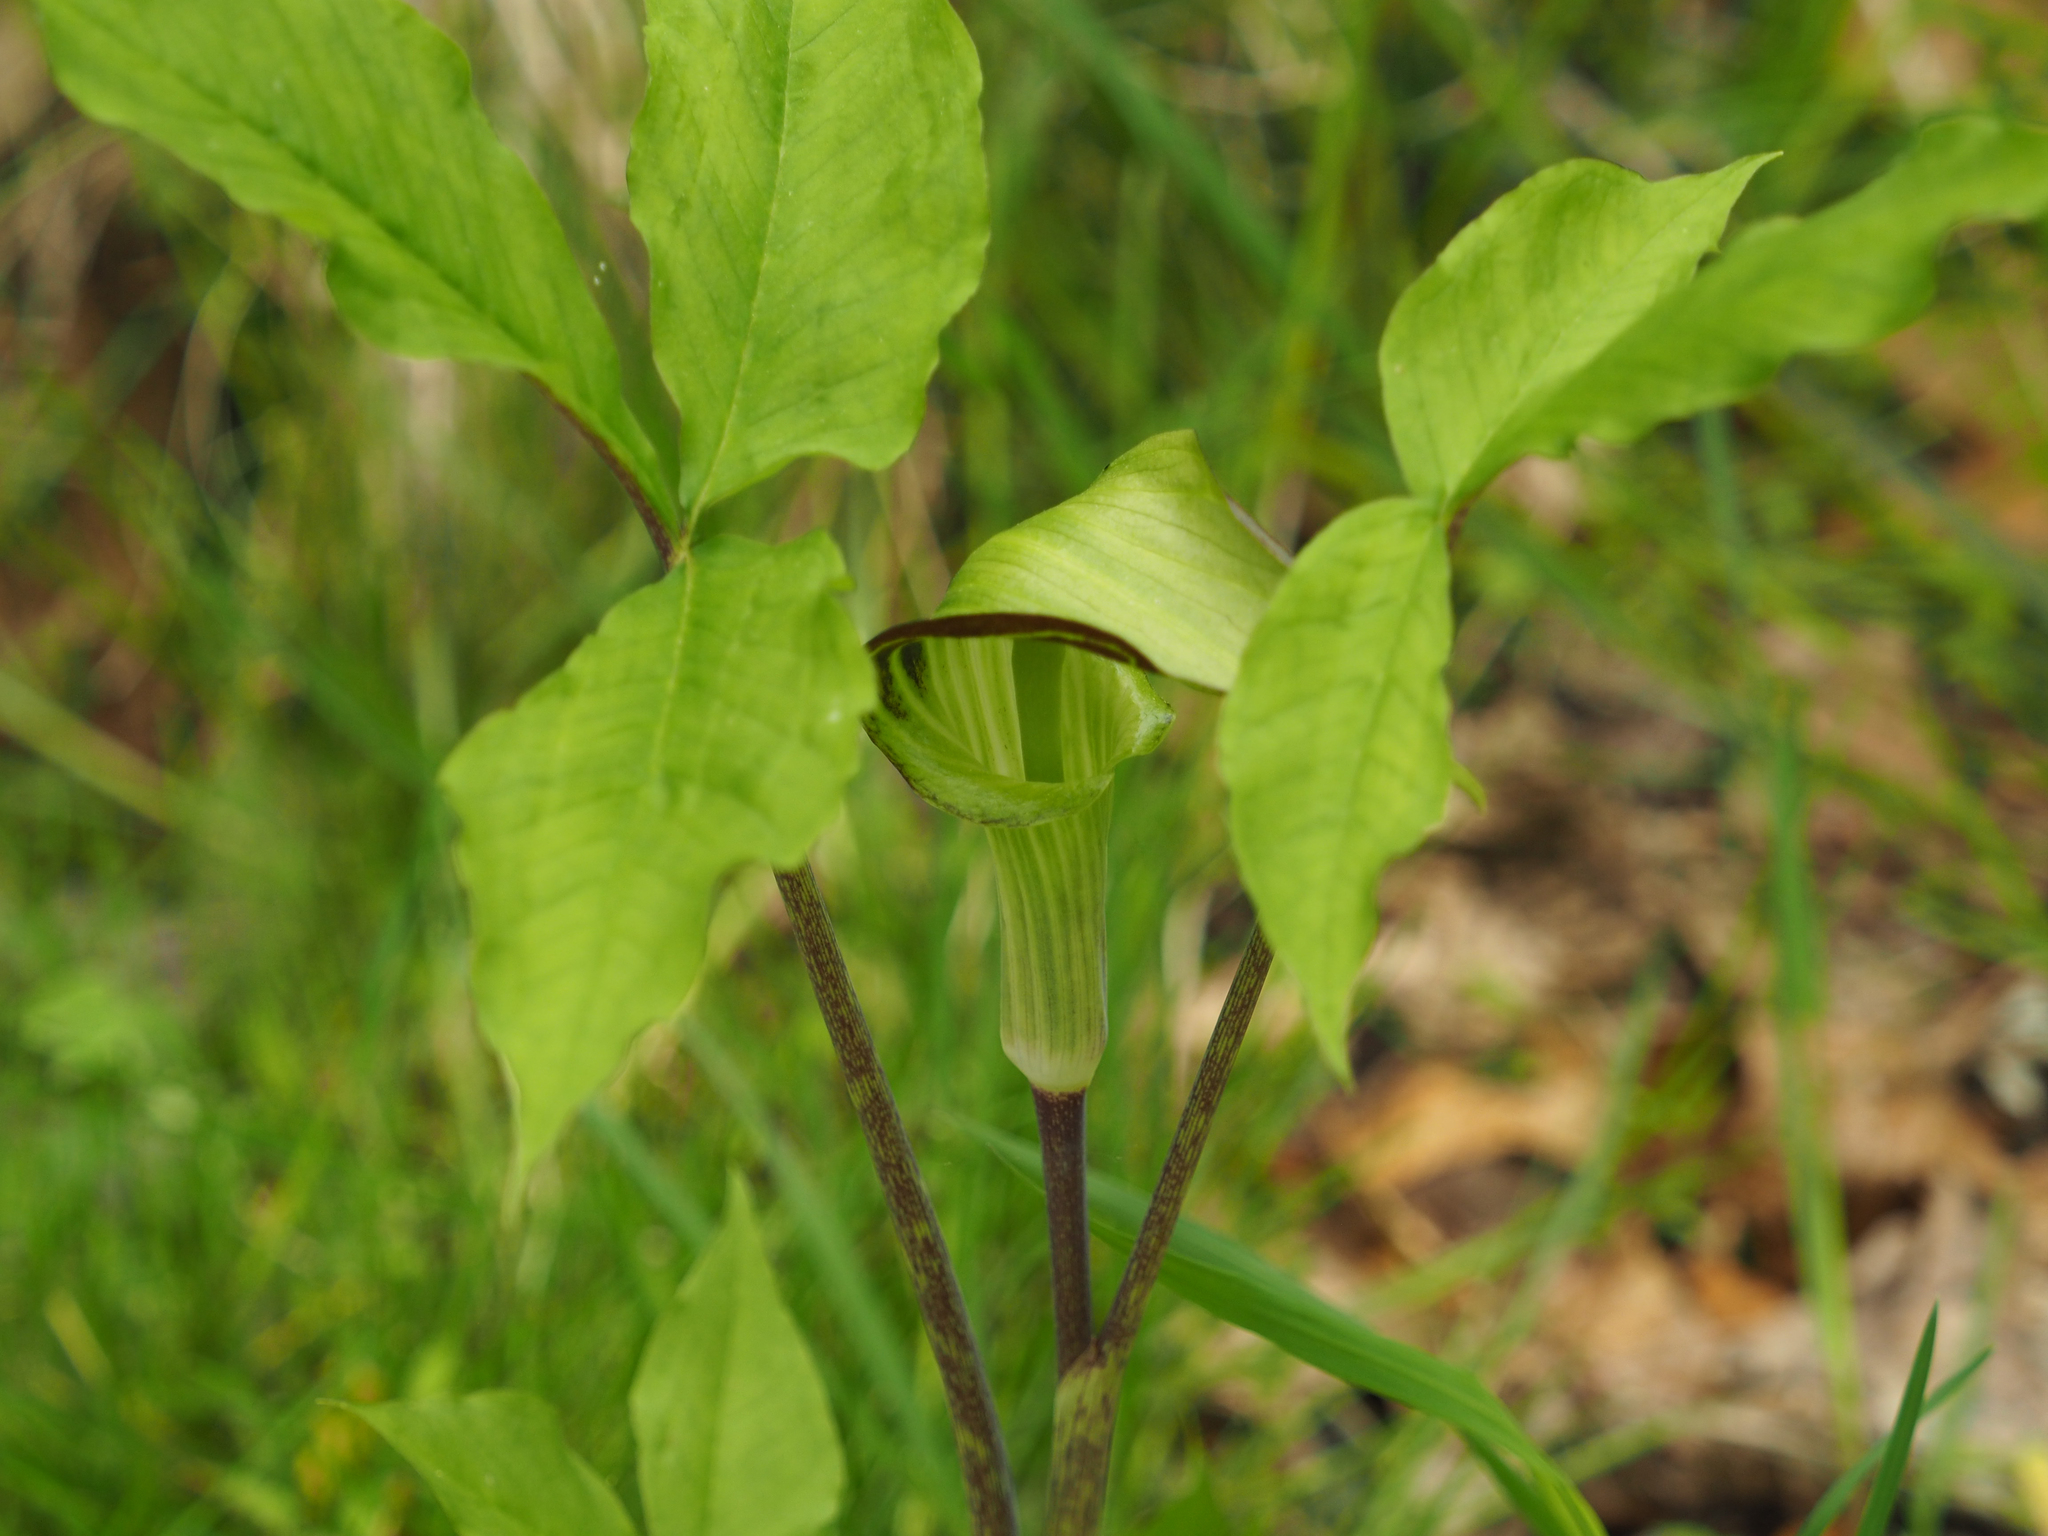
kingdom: Plantae
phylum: Tracheophyta
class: Liliopsida
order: Alismatales
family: Araceae
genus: Arisaema
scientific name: Arisaema triphyllum
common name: Jack-in-the-pulpit
